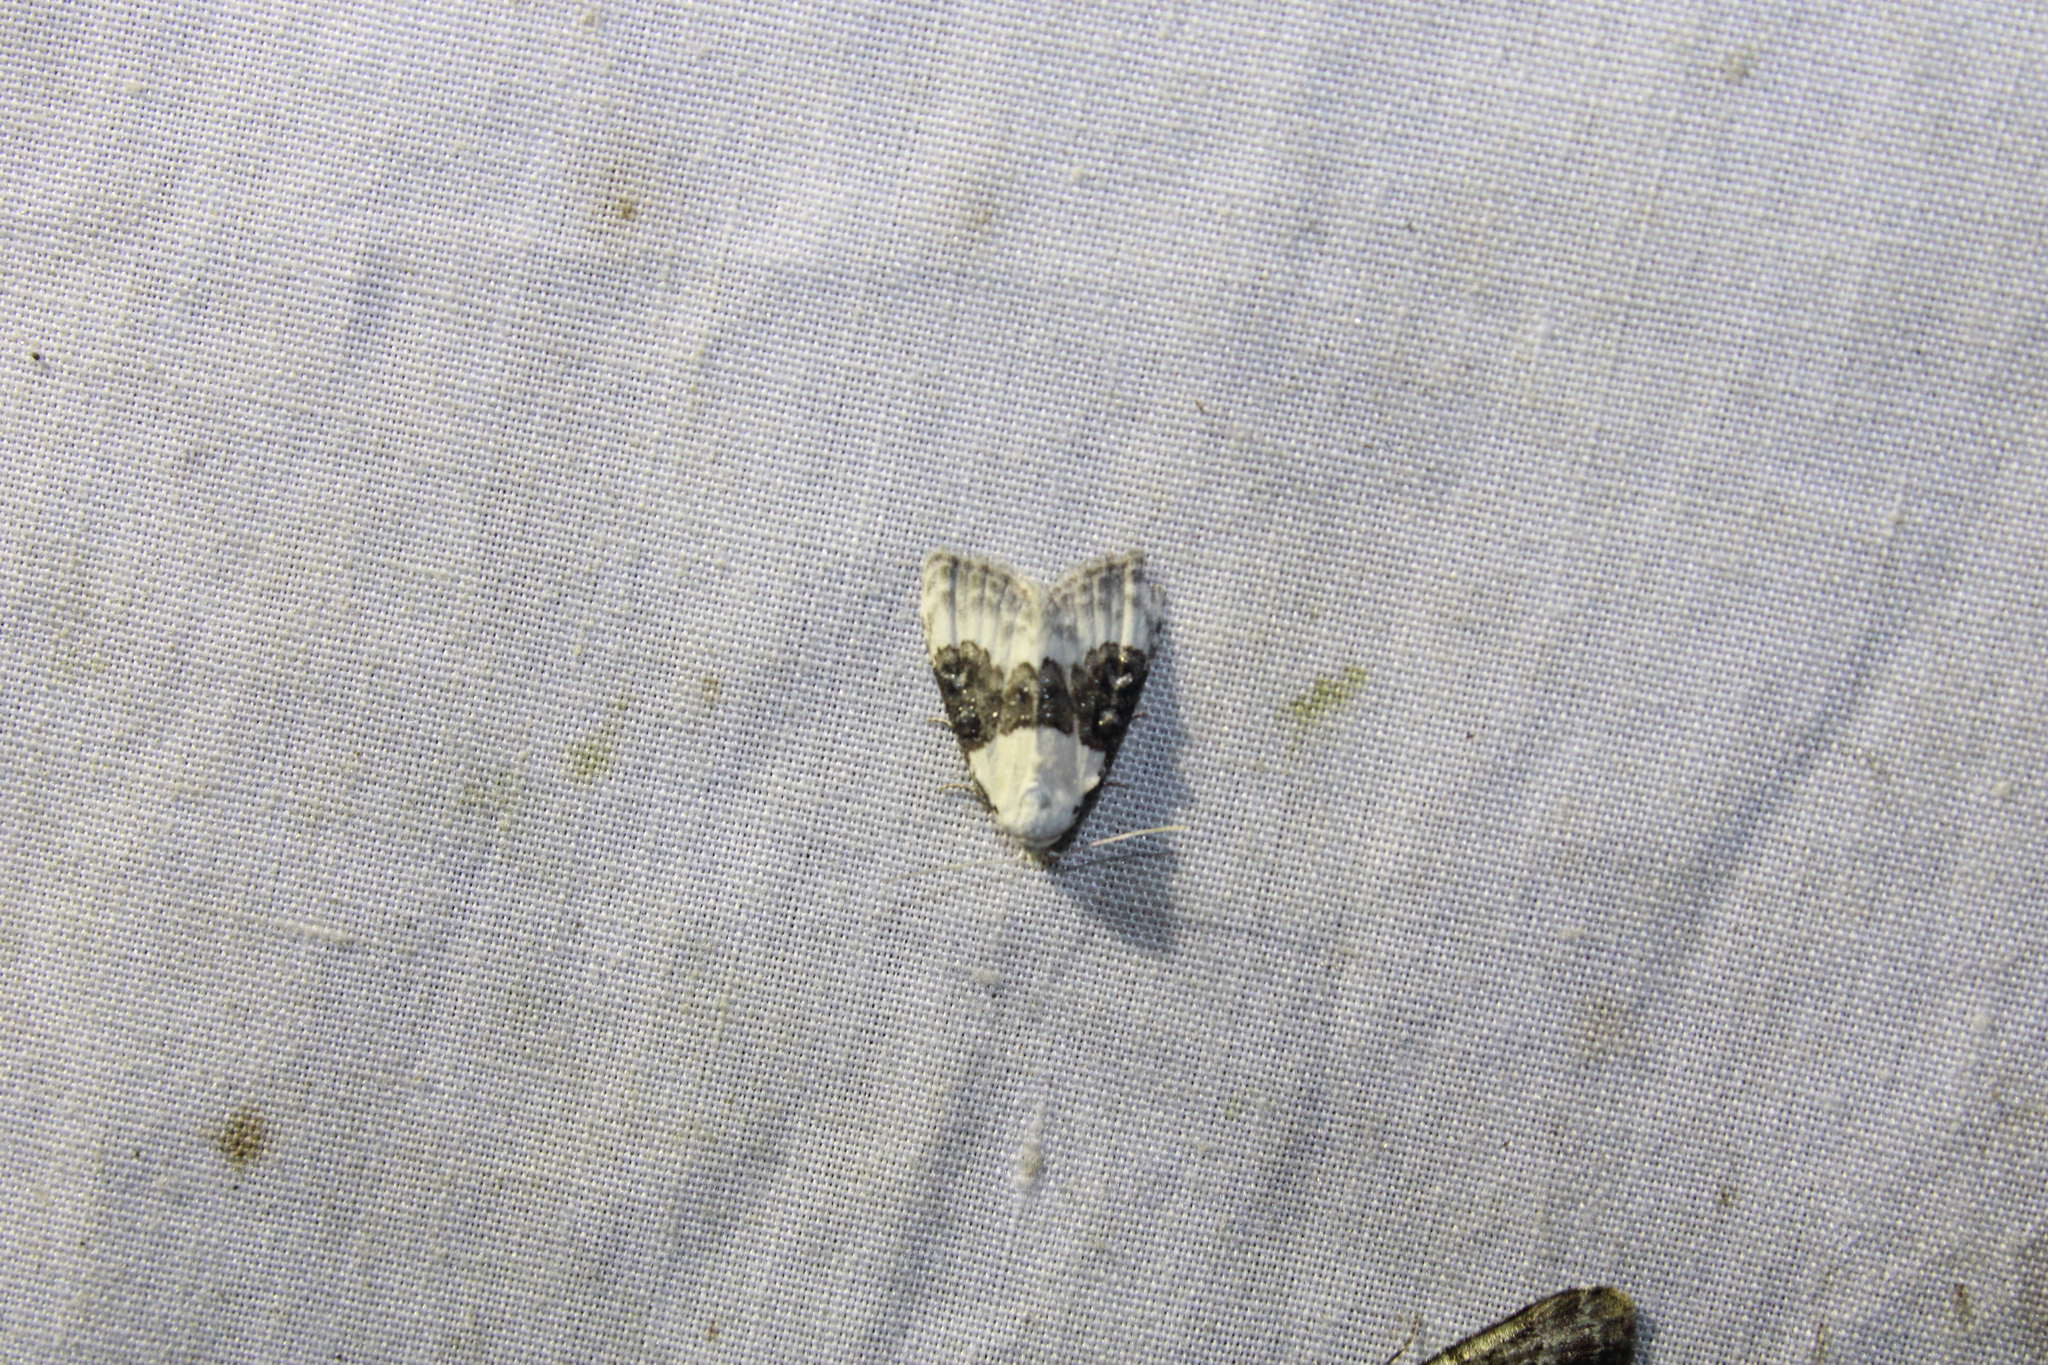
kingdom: Animalia
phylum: Arthropoda
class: Insecta
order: Lepidoptera
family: Nolidae
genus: Nola
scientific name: Nola pustulata
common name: Sharp-blotched nola moth
